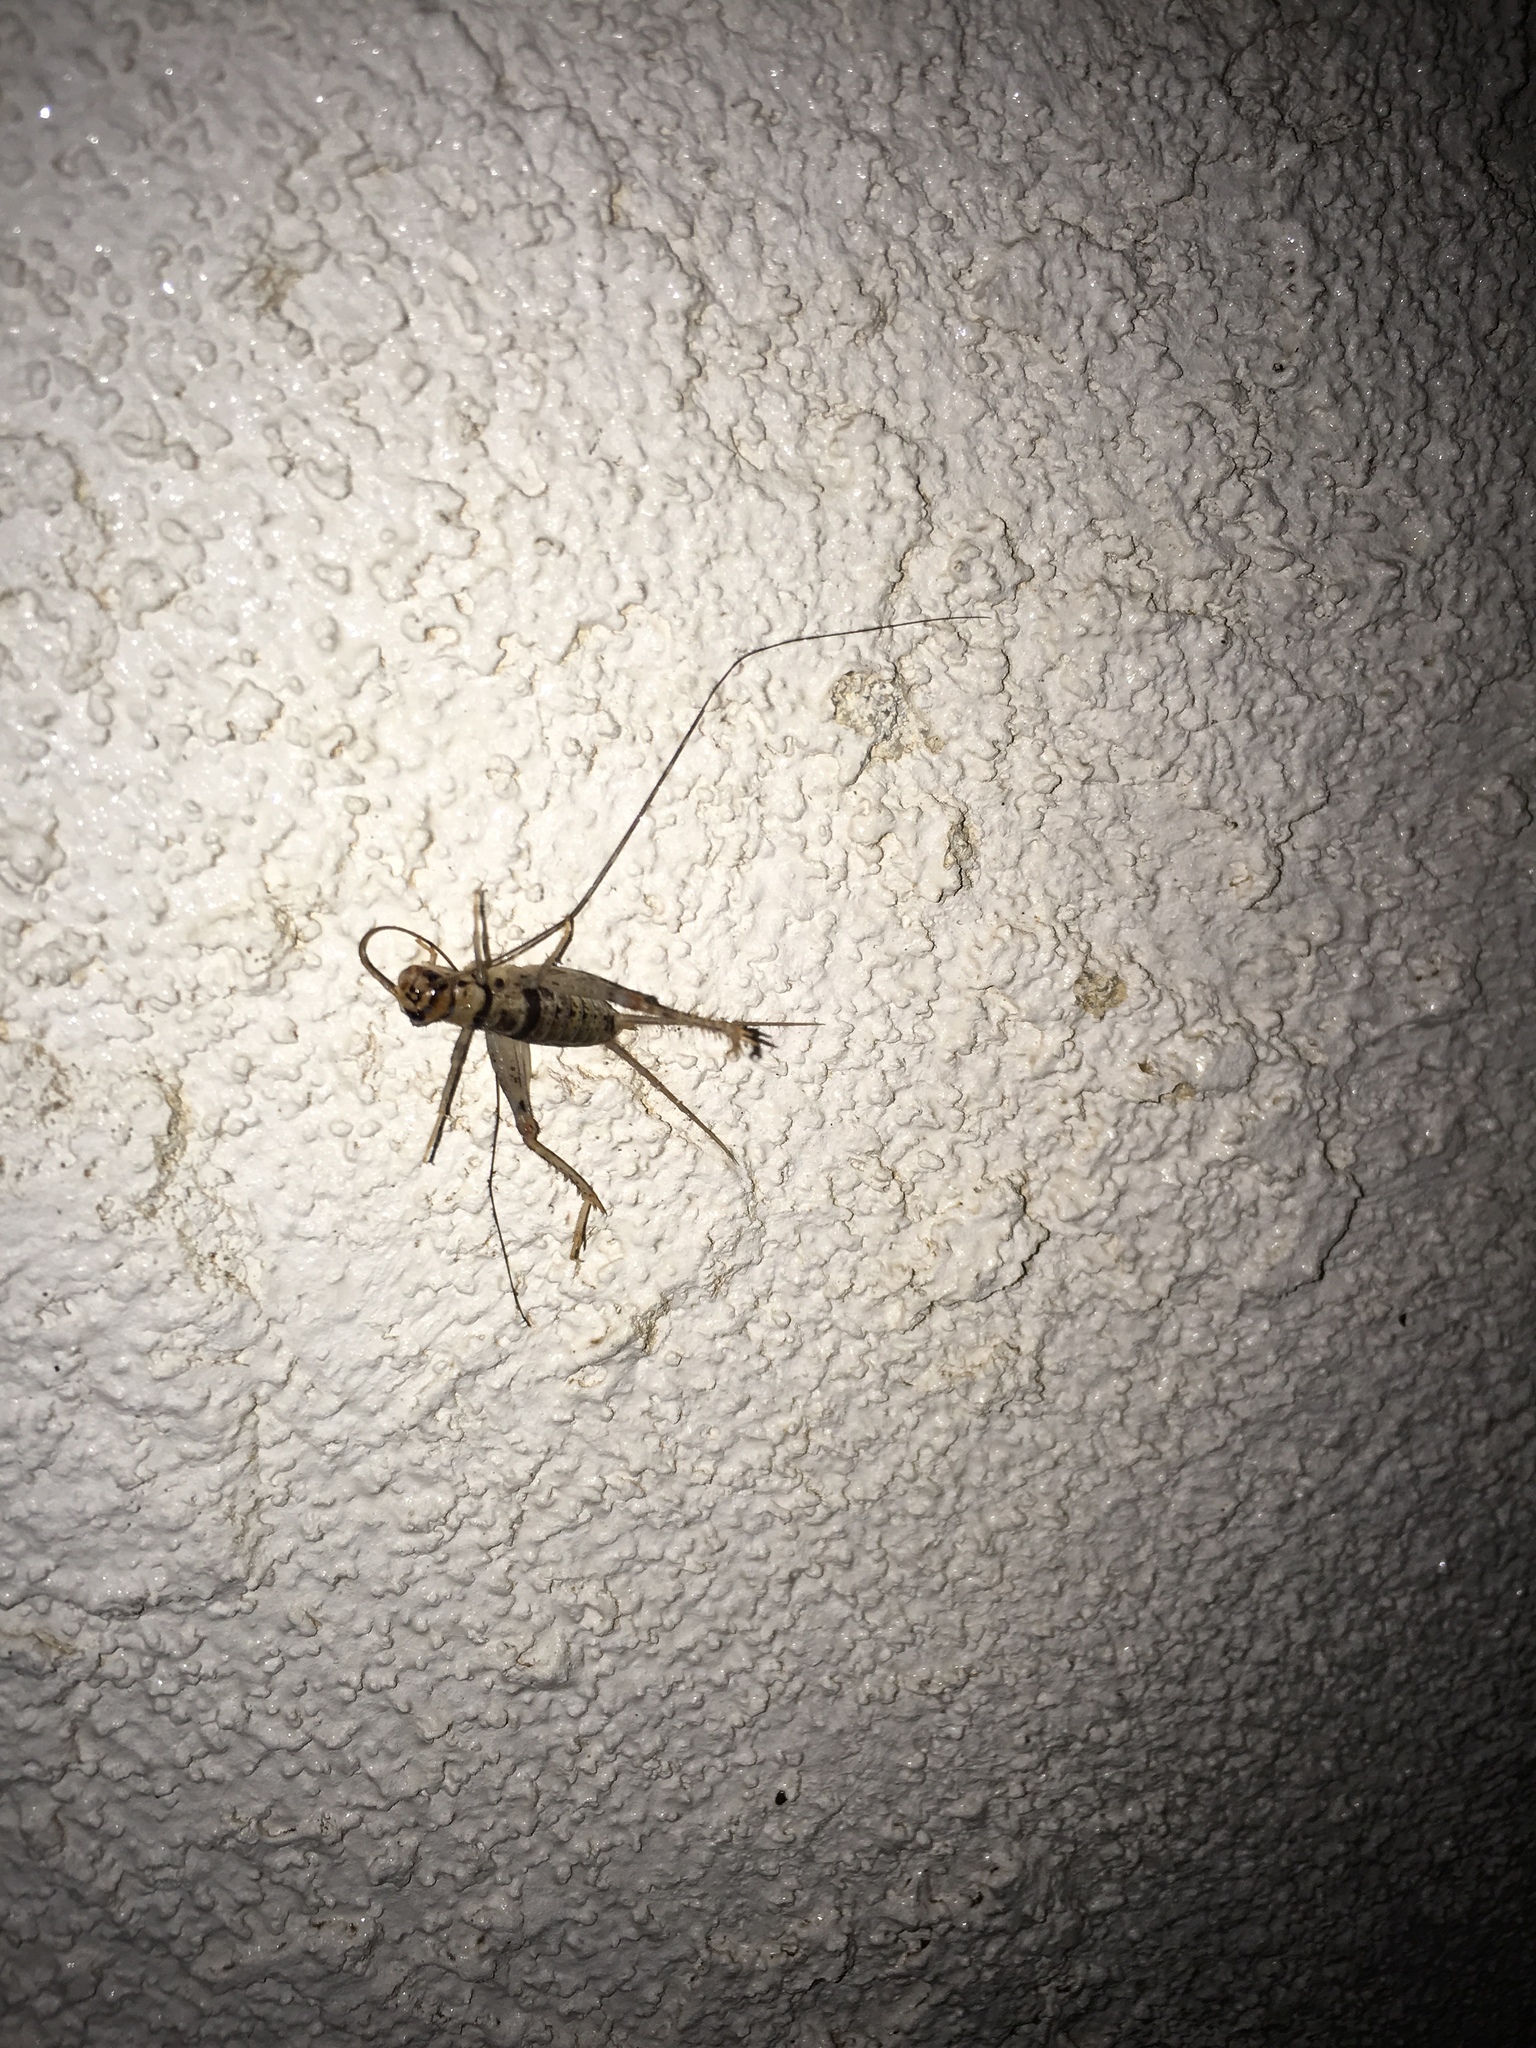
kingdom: Animalia
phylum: Arthropoda
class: Insecta
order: Orthoptera
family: Gryllidae
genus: Gryllodes
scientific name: Gryllodes sigillatus
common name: Tropical house cricket
